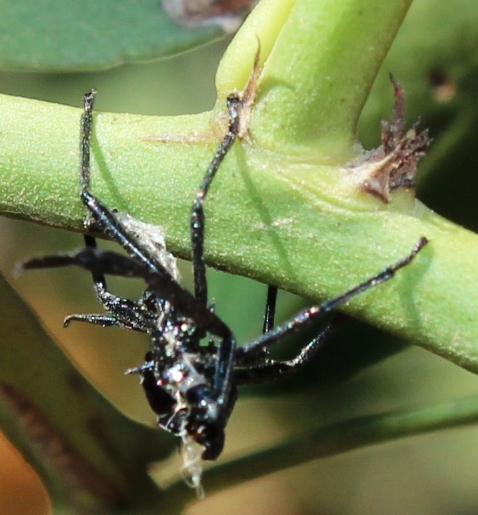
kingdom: Animalia
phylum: Arthropoda
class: Insecta
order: Hemiptera
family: Coreidae
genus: Plinachtus
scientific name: Plinachtus
